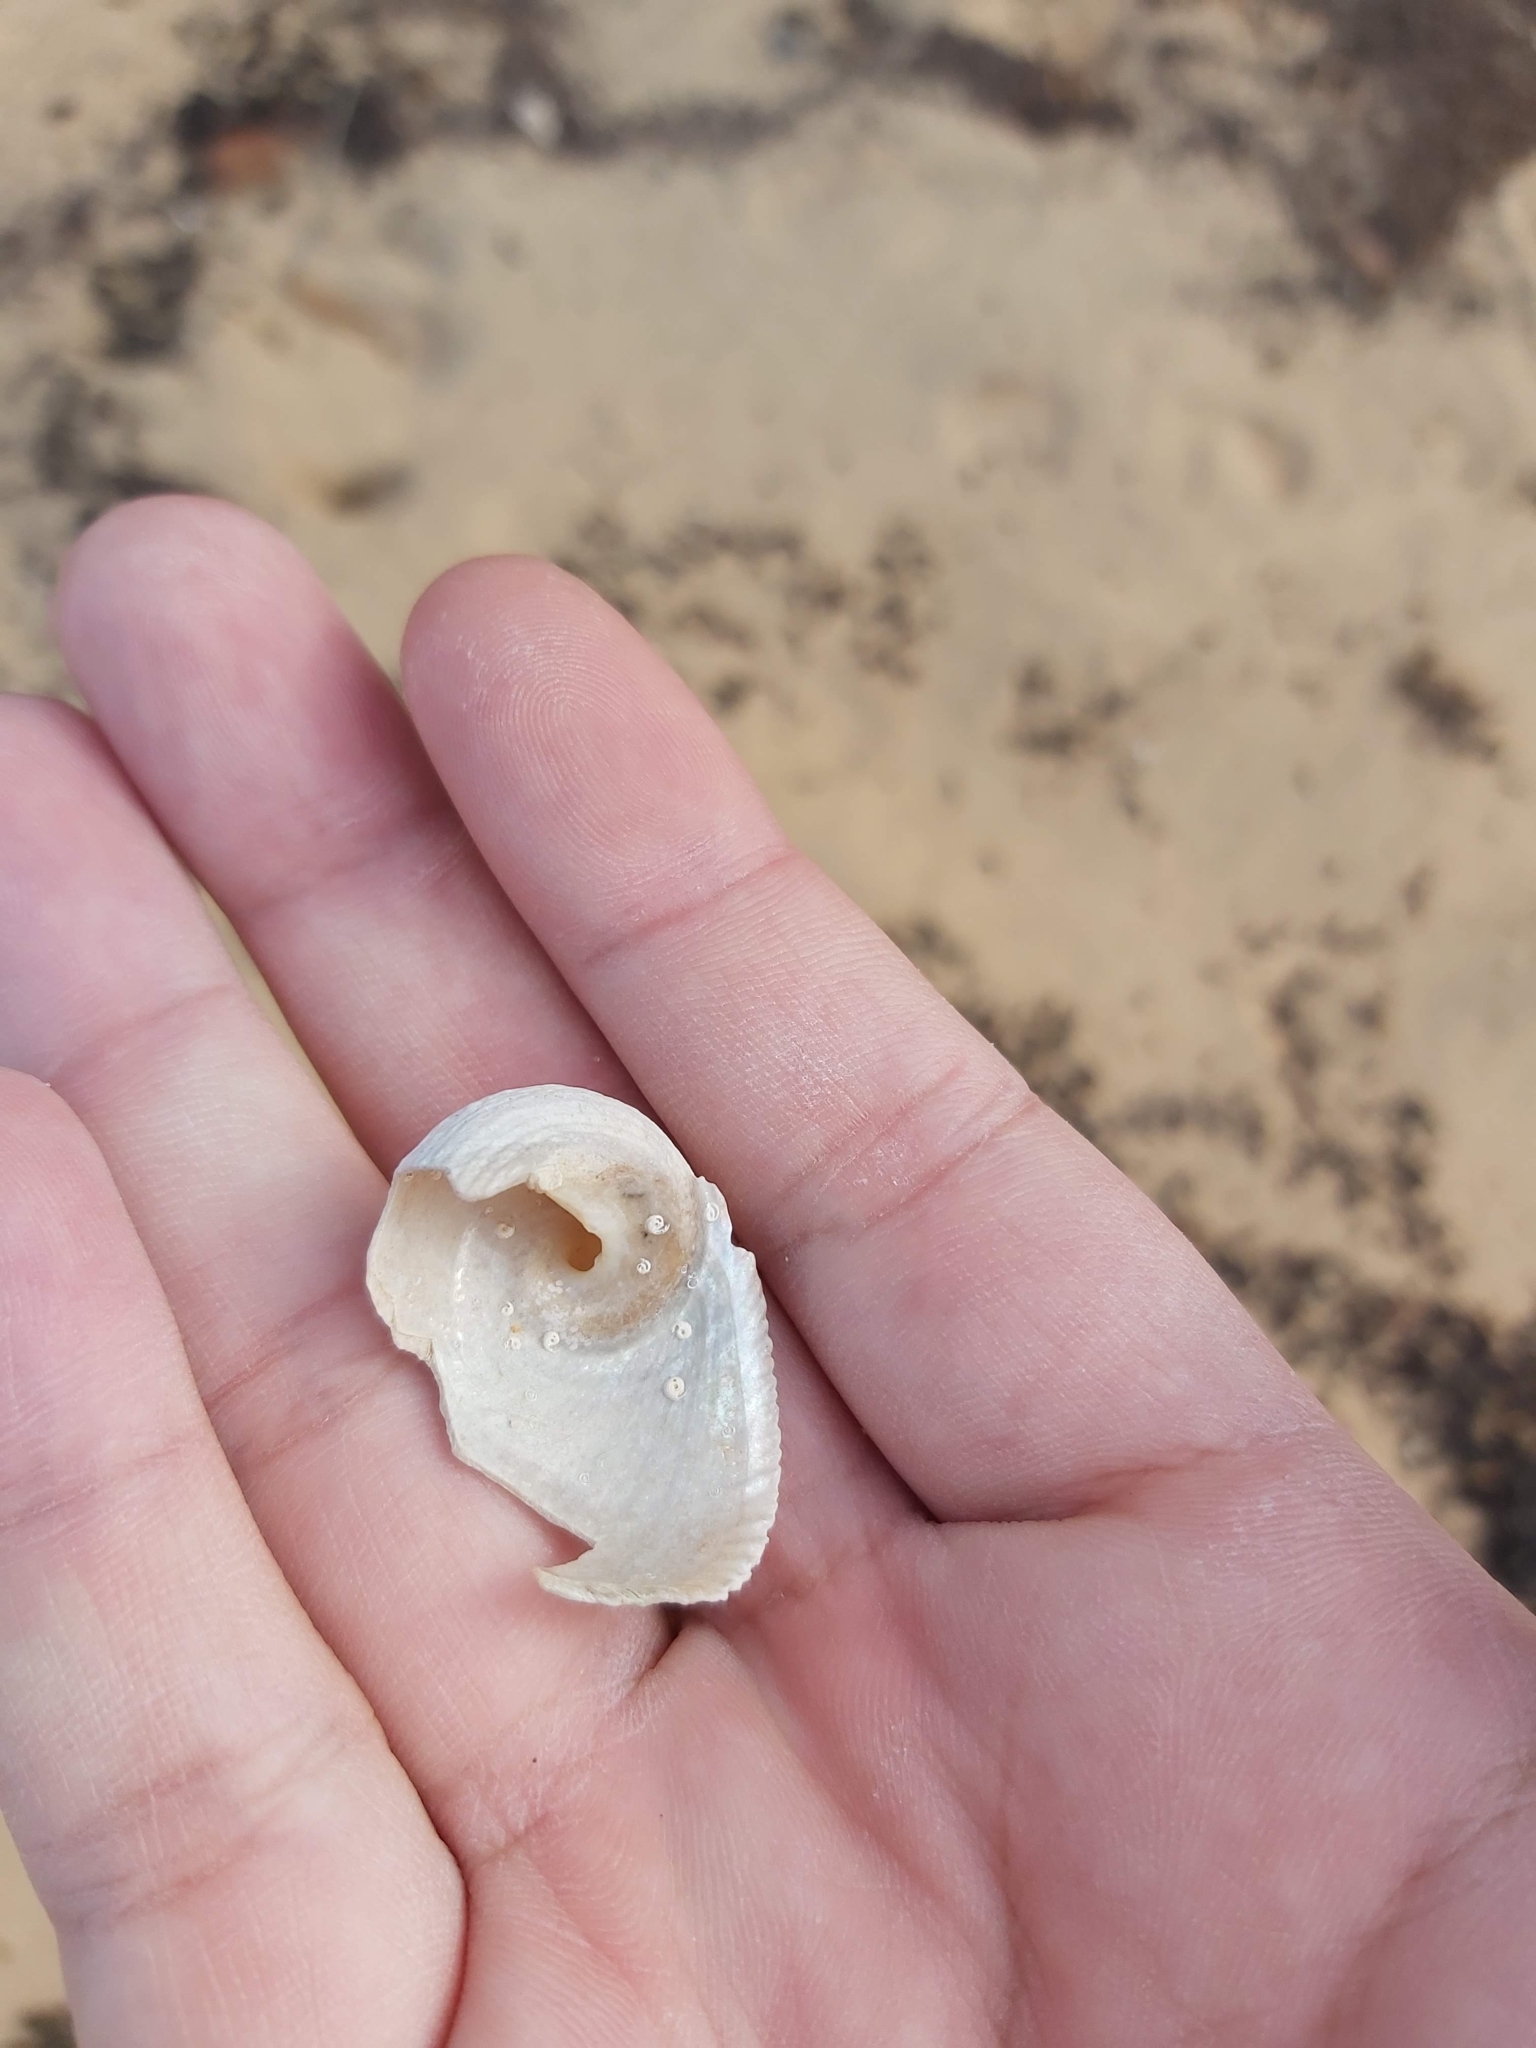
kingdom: Animalia
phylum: Mollusca
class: Gastropoda
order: Seguenziida
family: Chilodontaidae
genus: Granata
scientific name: Granata imbricata
